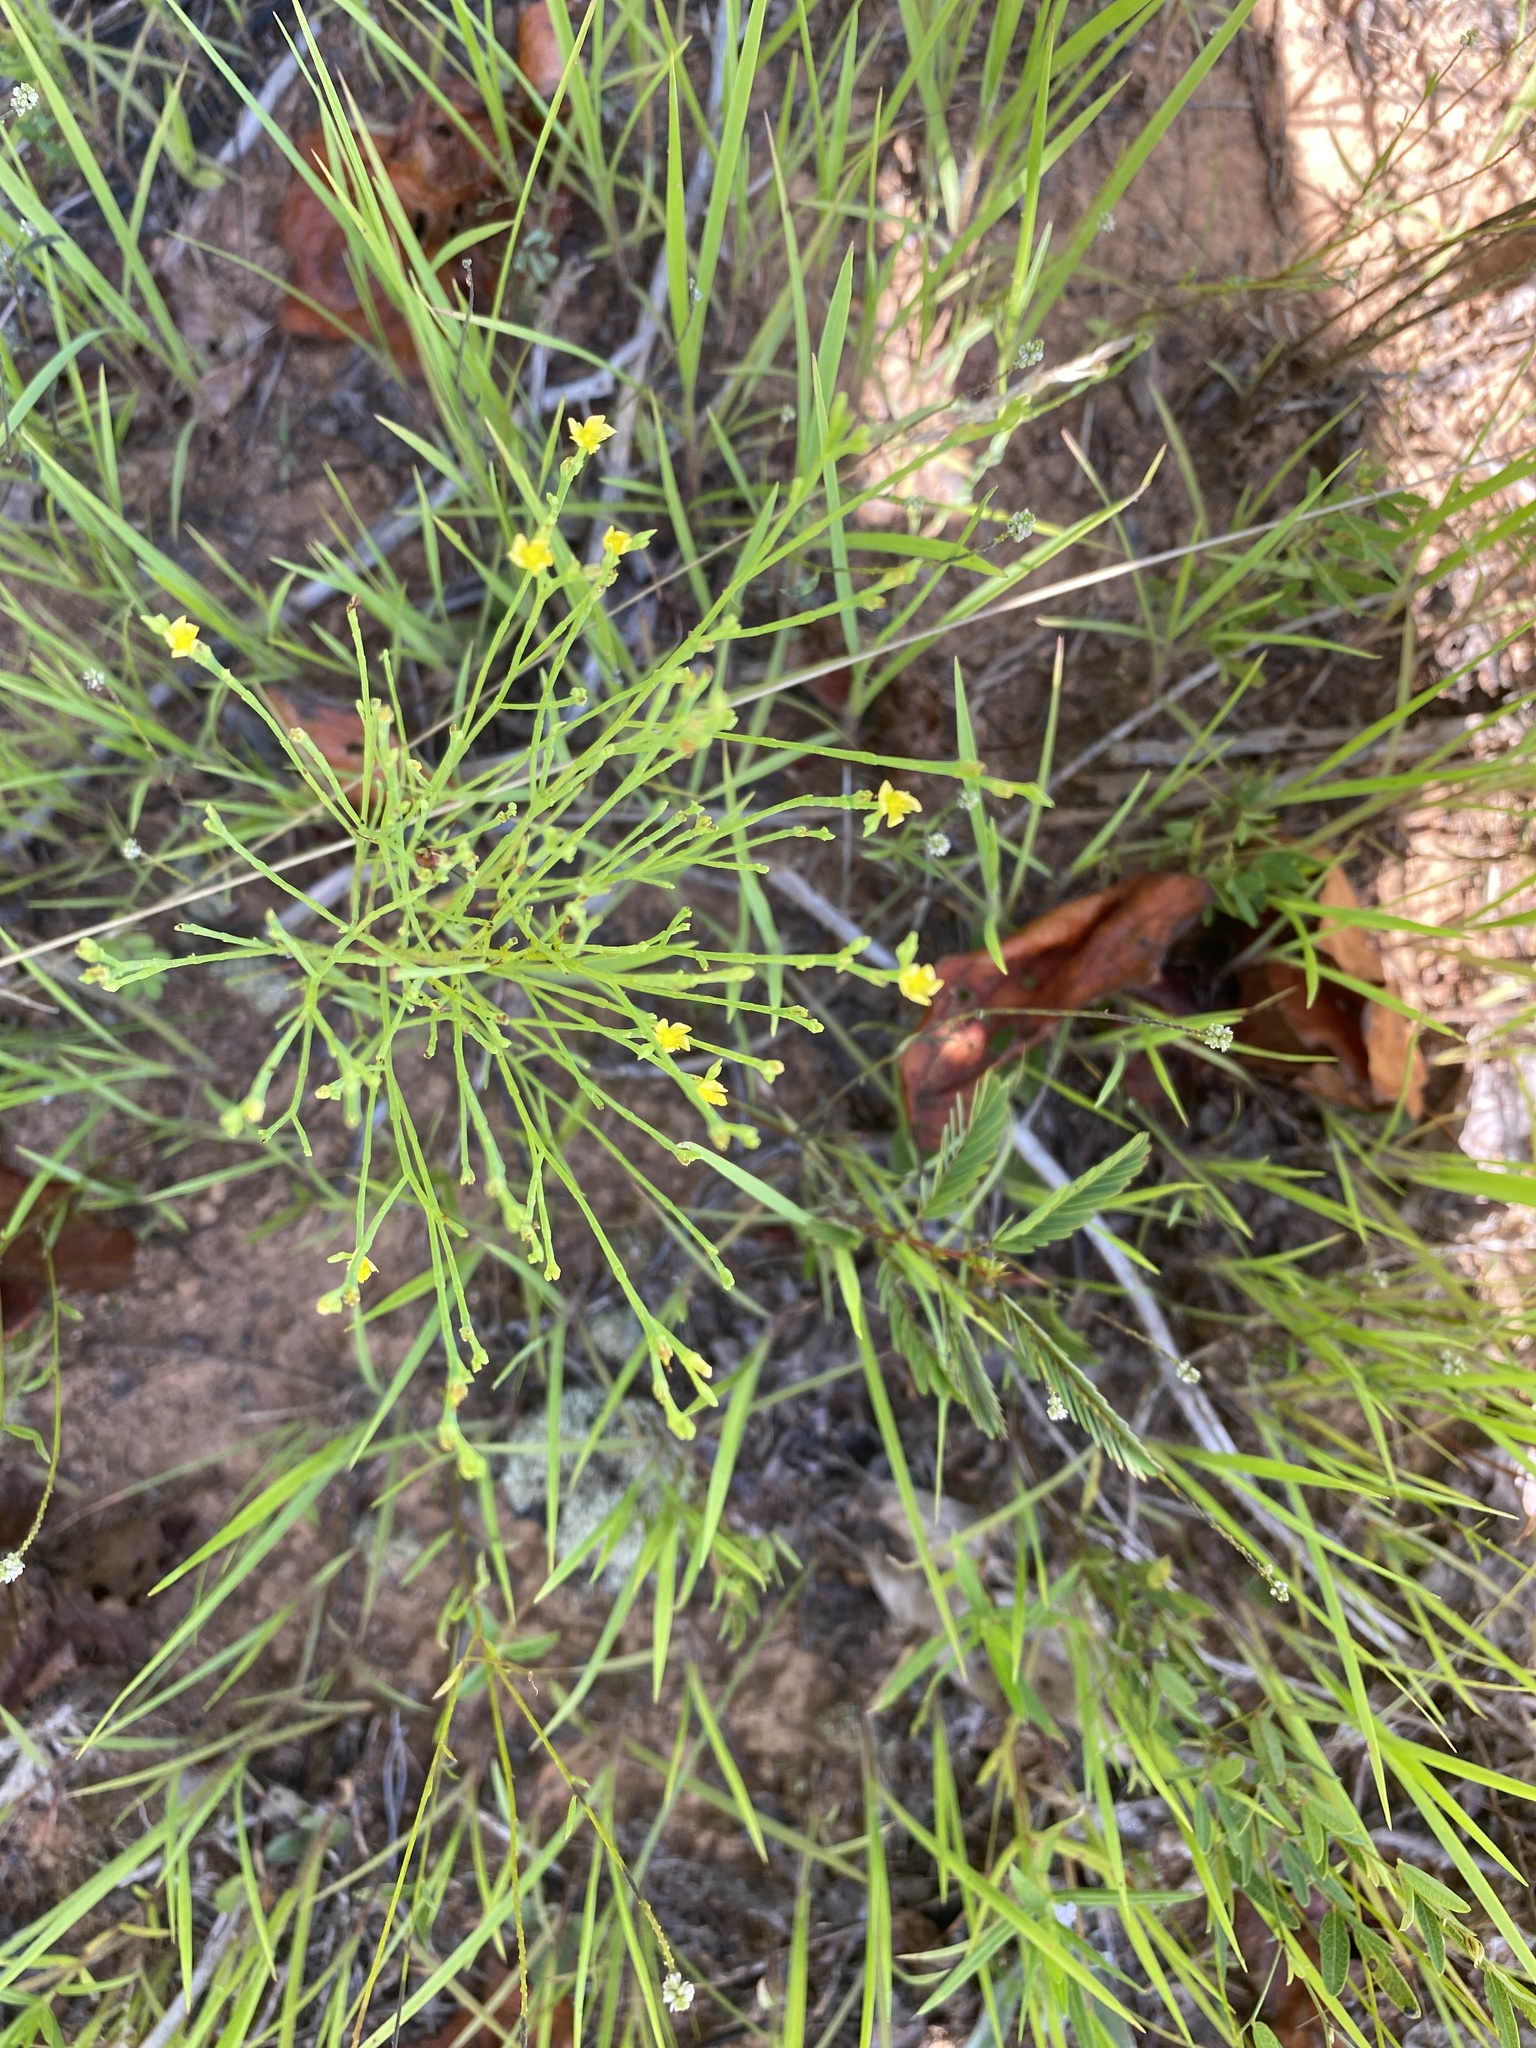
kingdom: Plantae
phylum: Tracheophyta
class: Magnoliopsida
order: Malpighiales
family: Hypericaceae
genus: Hypericum
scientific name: Hypericum gentianoides
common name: Gentian-leaved st. john's-wort
